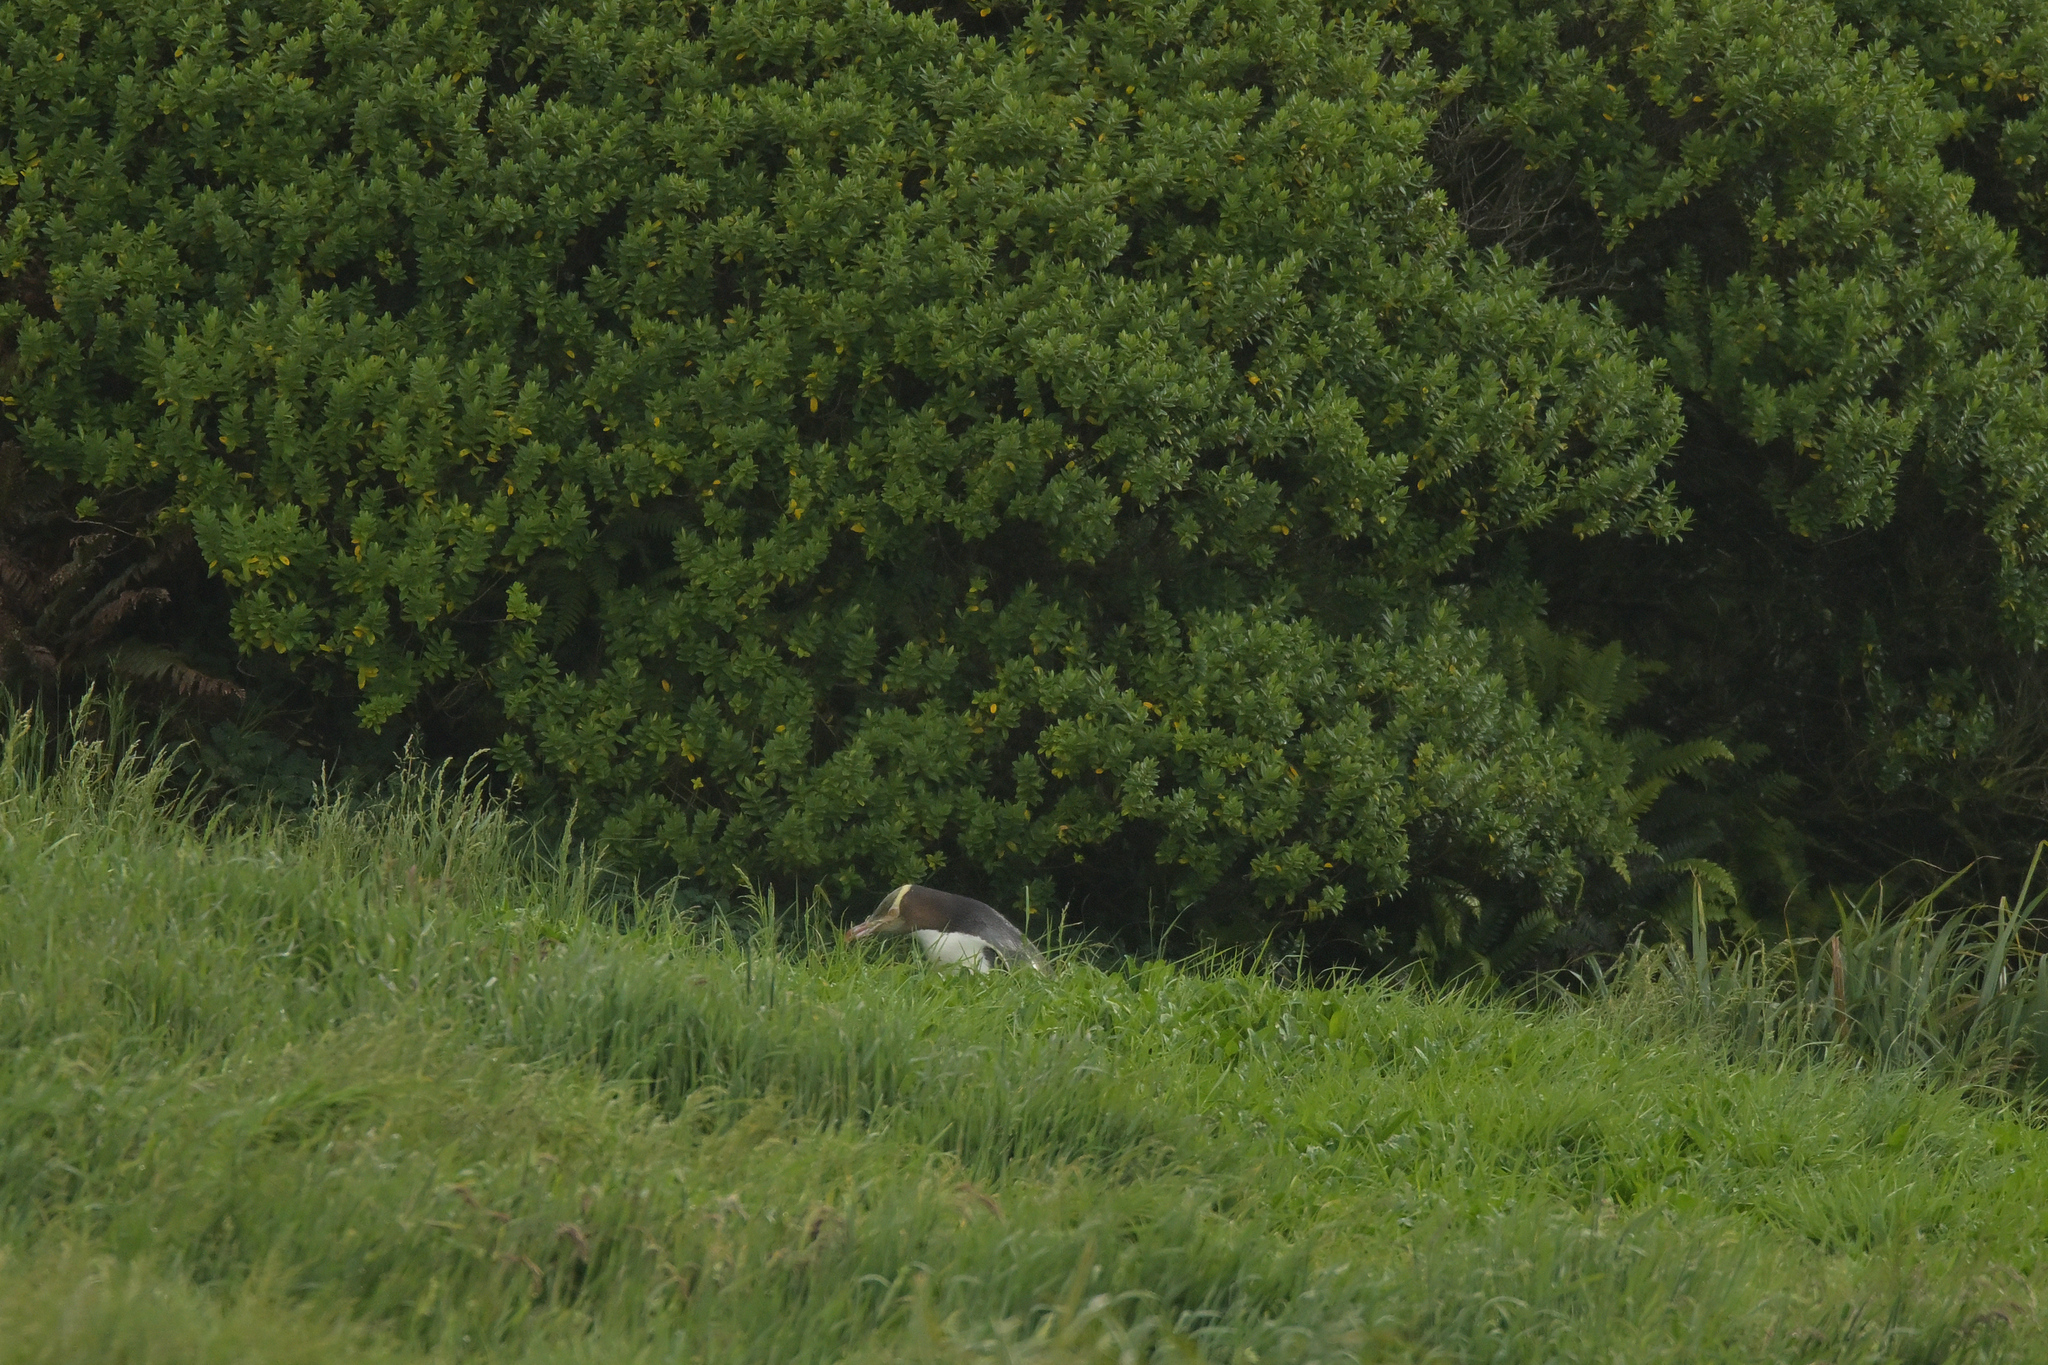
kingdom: Animalia
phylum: Chordata
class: Aves
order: Sphenisciformes
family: Spheniscidae
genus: Megadyptes
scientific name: Megadyptes antipodes
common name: Yellow-eyed penguin
